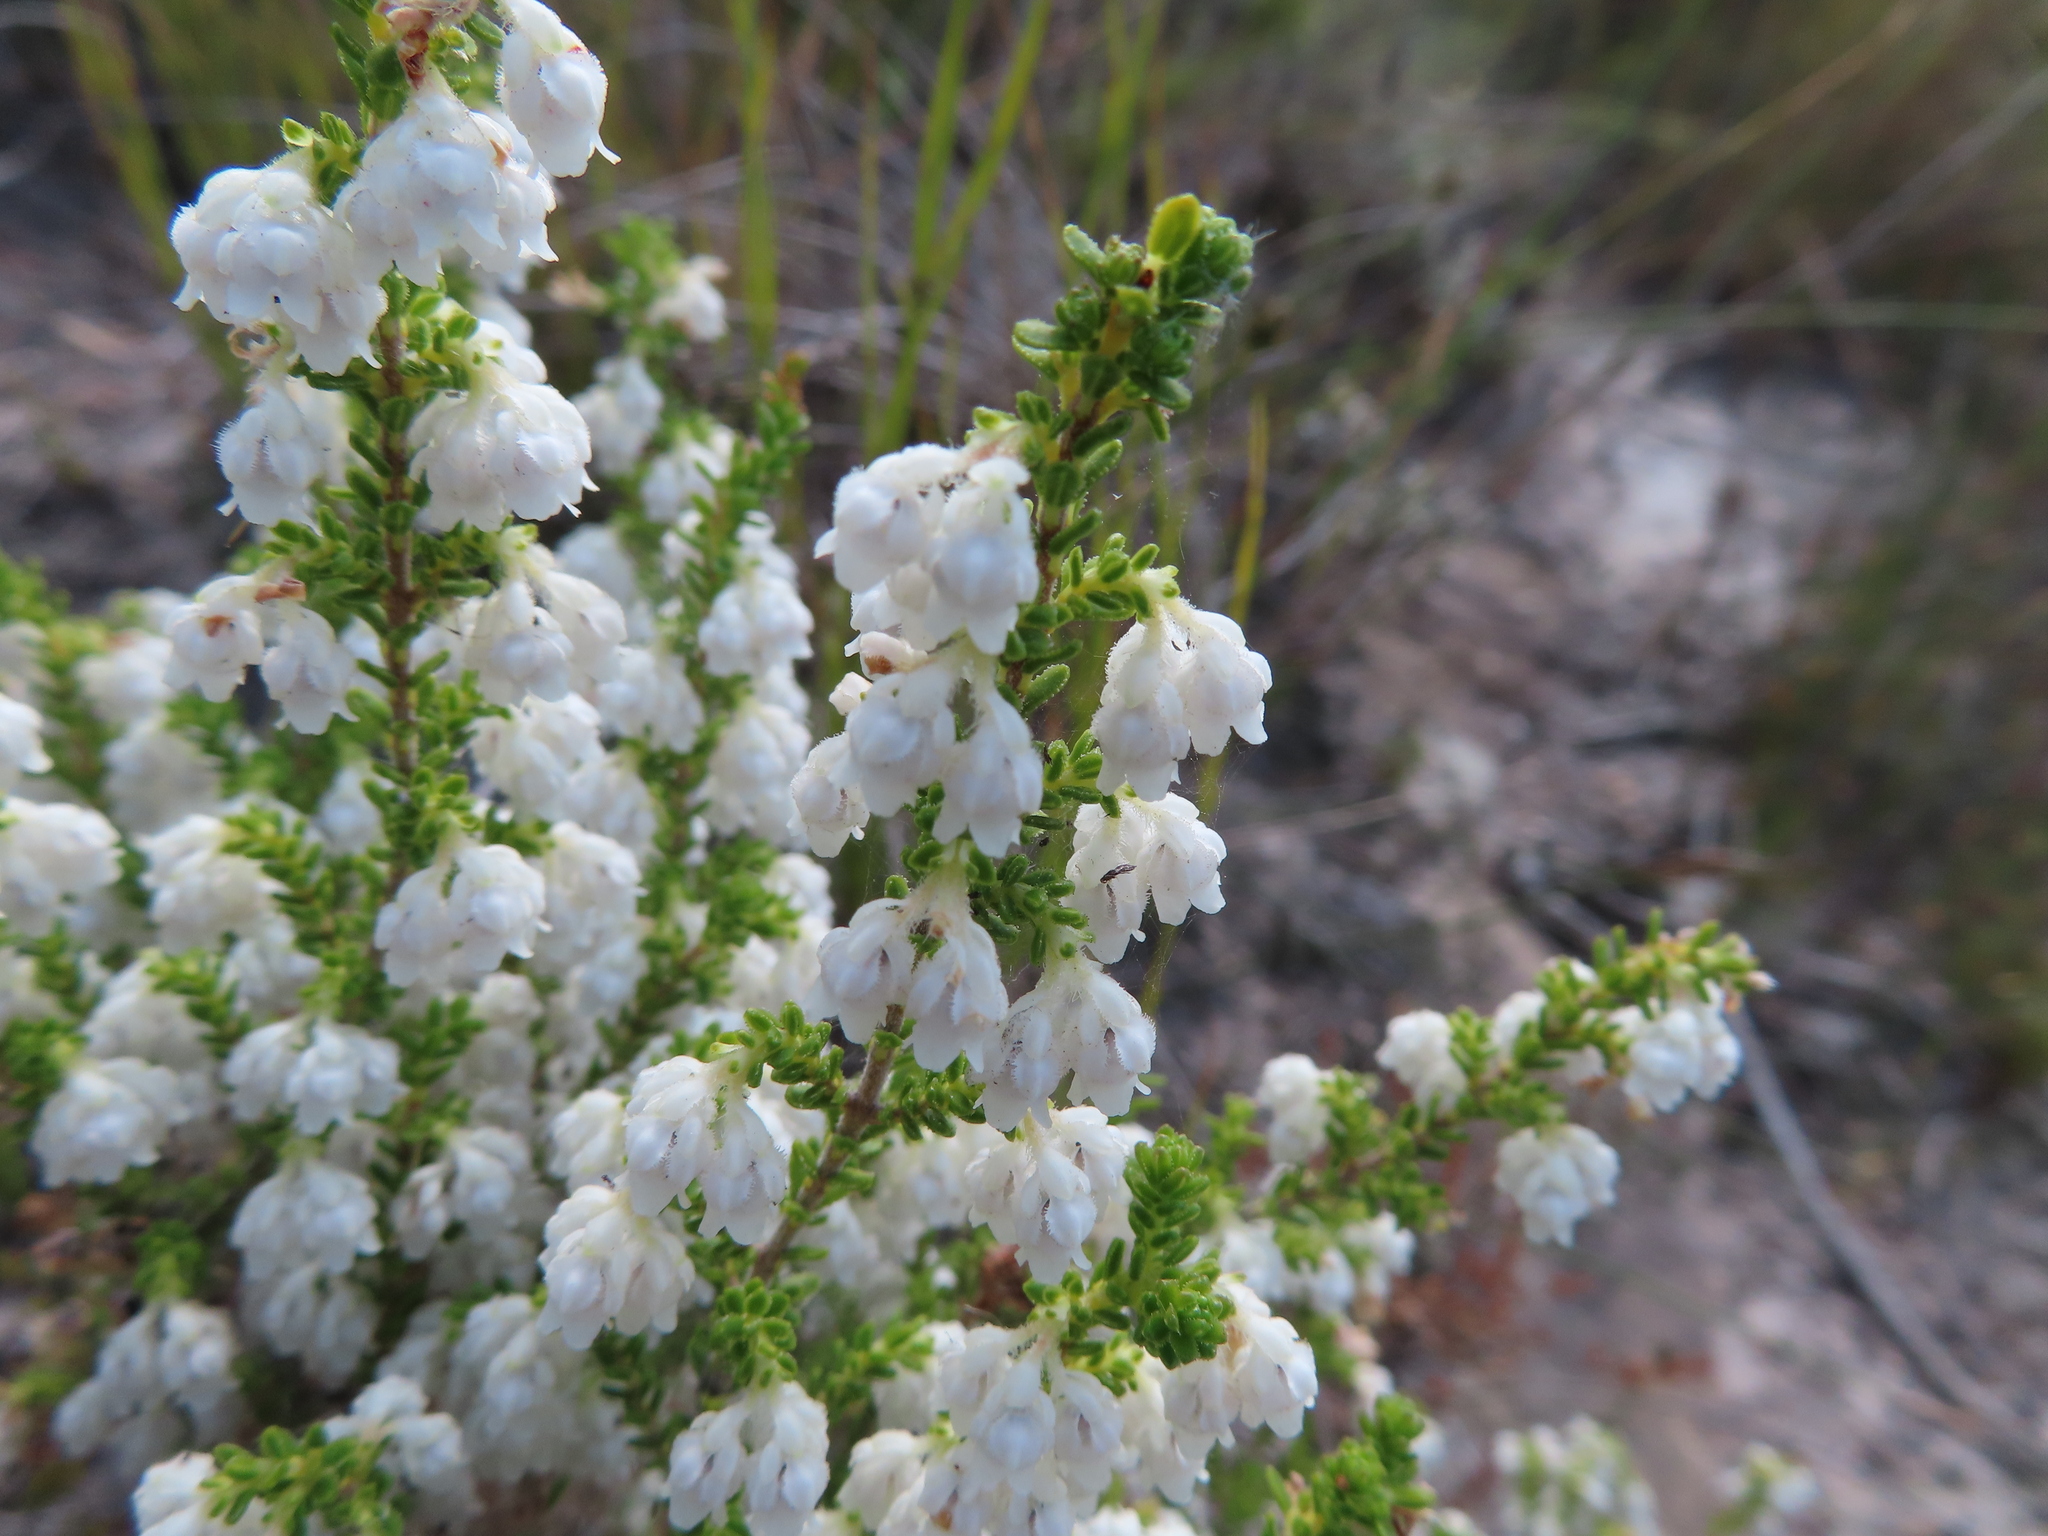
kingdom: Plantae
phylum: Tracheophyta
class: Magnoliopsida
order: Ericales
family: Ericaceae
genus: Erica
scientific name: Erica fimbriata
